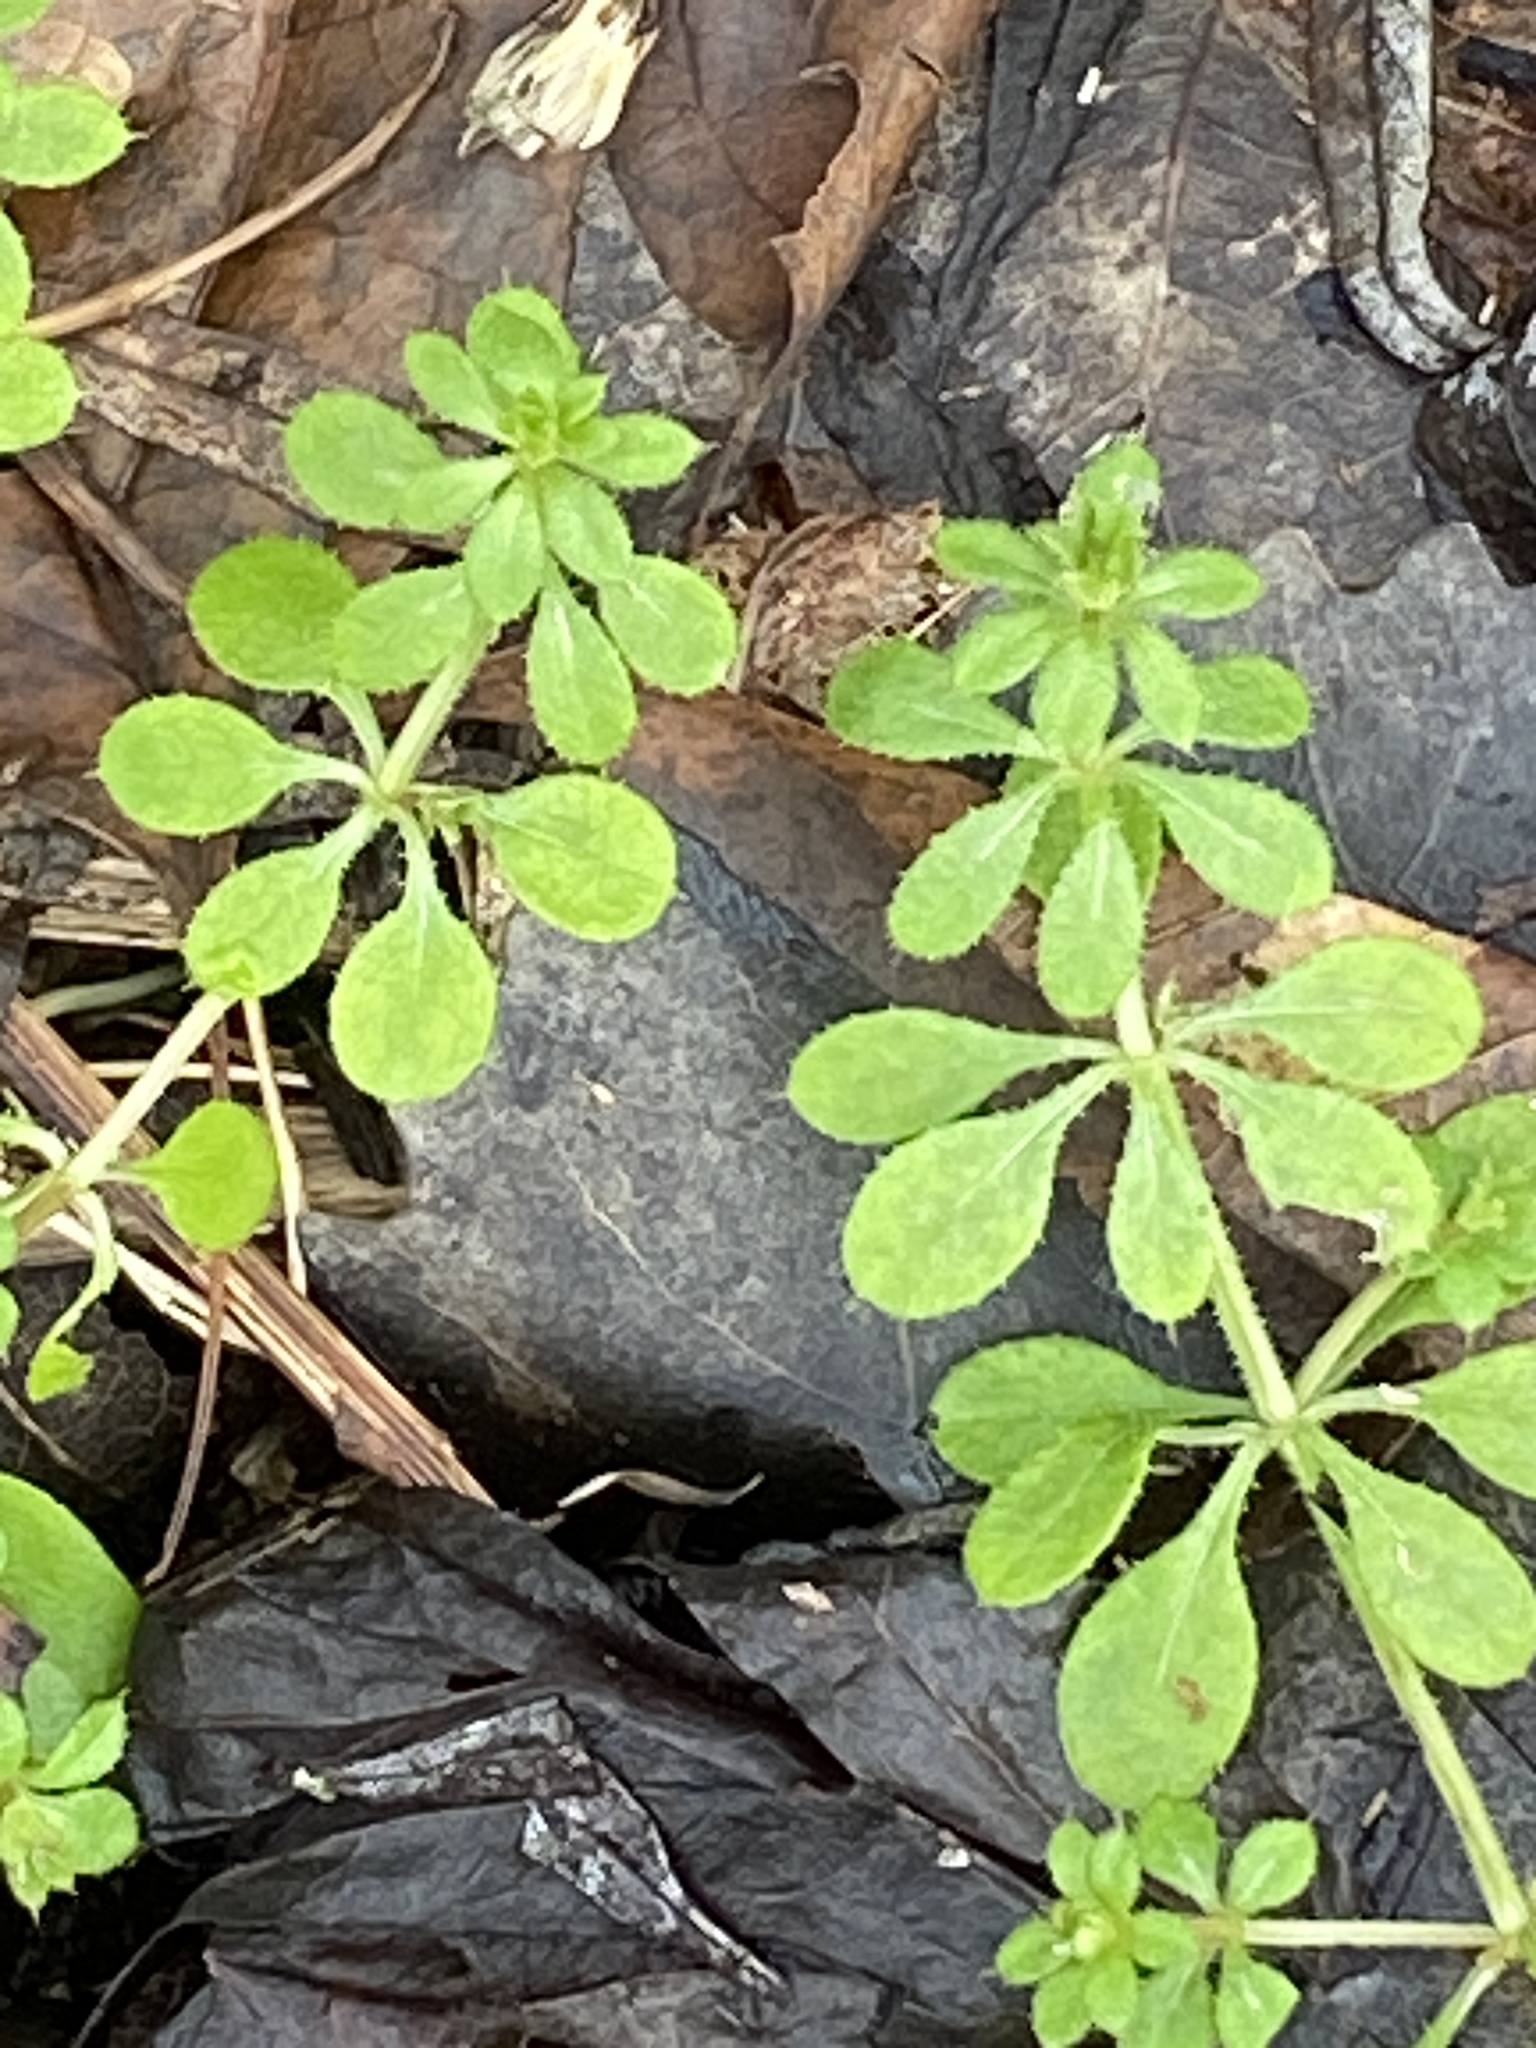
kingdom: Plantae
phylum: Tracheophyta
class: Magnoliopsida
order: Gentianales
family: Rubiaceae
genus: Galium
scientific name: Galium aparine
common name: Cleavers
